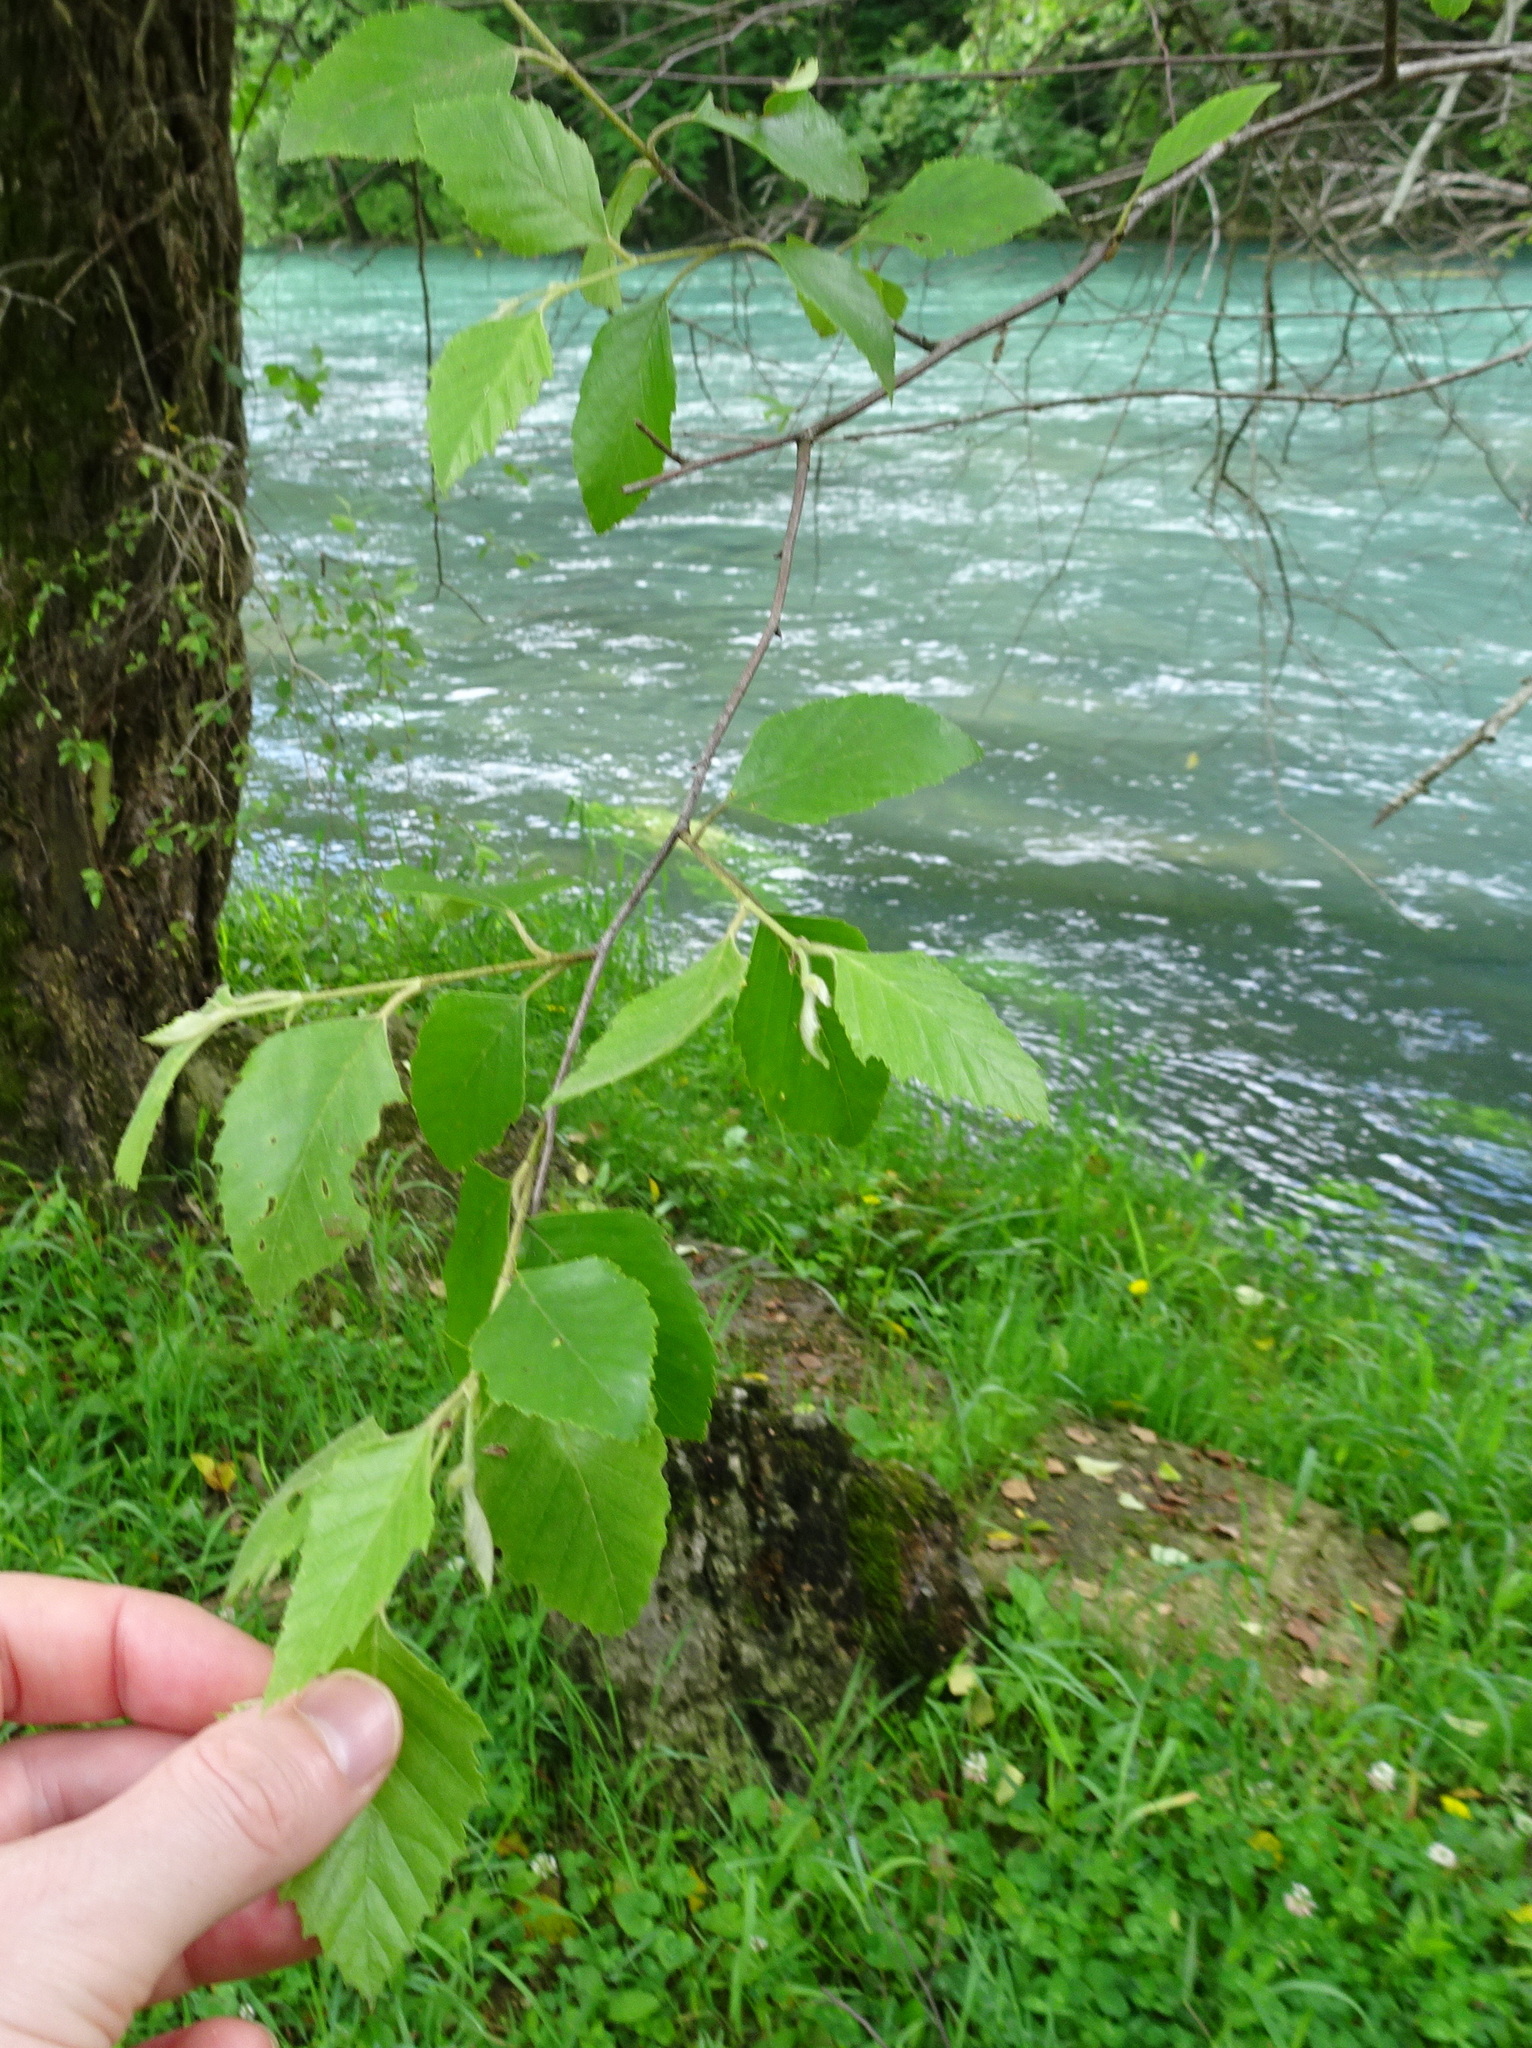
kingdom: Plantae
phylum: Tracheophyta
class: Magnoliopsida
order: Fagales
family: Betulaceae
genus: Betula
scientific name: Betula nigra
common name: Black birch
